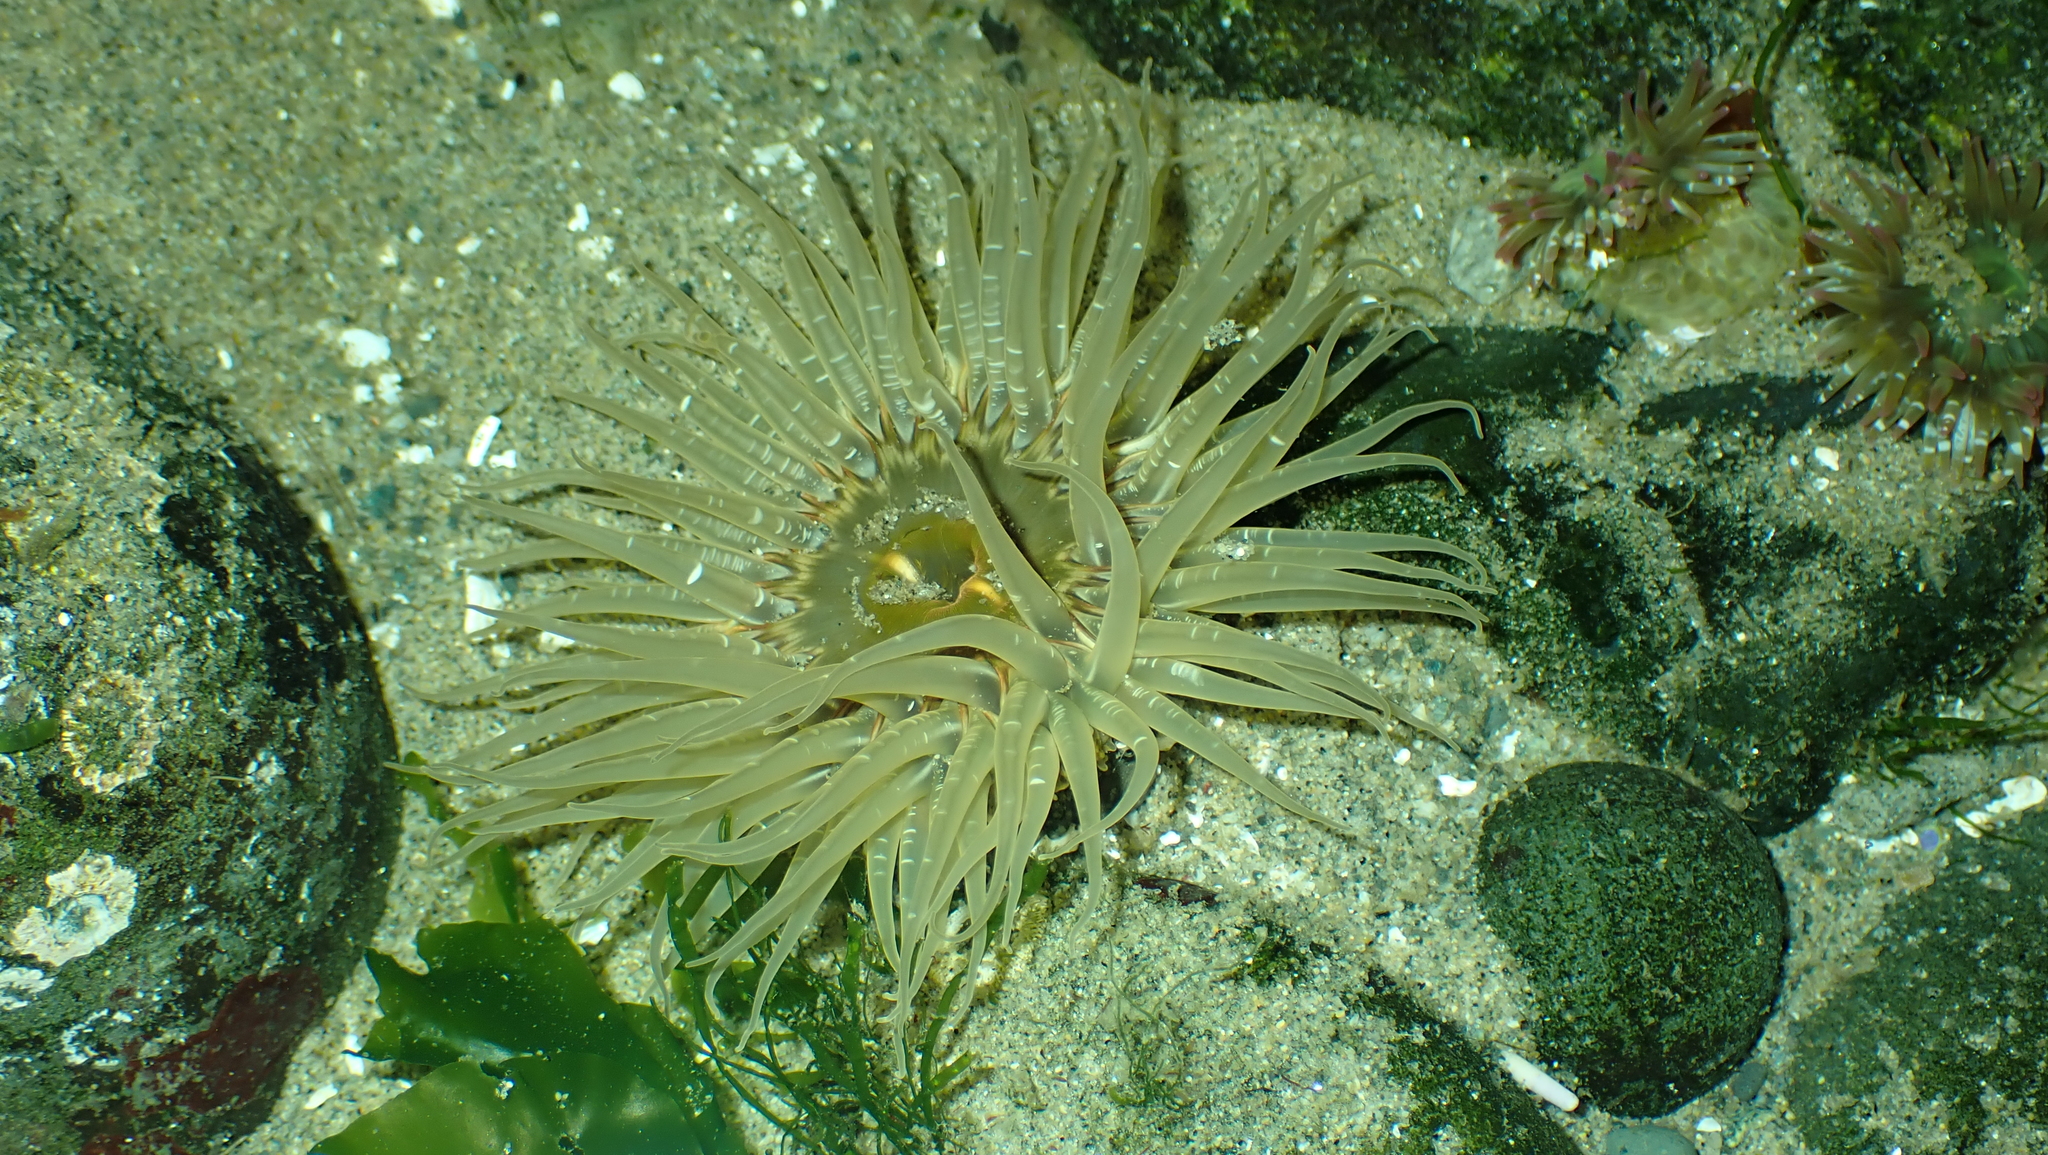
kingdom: Animalia
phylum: Cnidaria
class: Anthozoa
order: Actiniaria
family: Actiniidae
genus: Anthopleura
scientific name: Anthopleura artemisia
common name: Buried sea anemone
